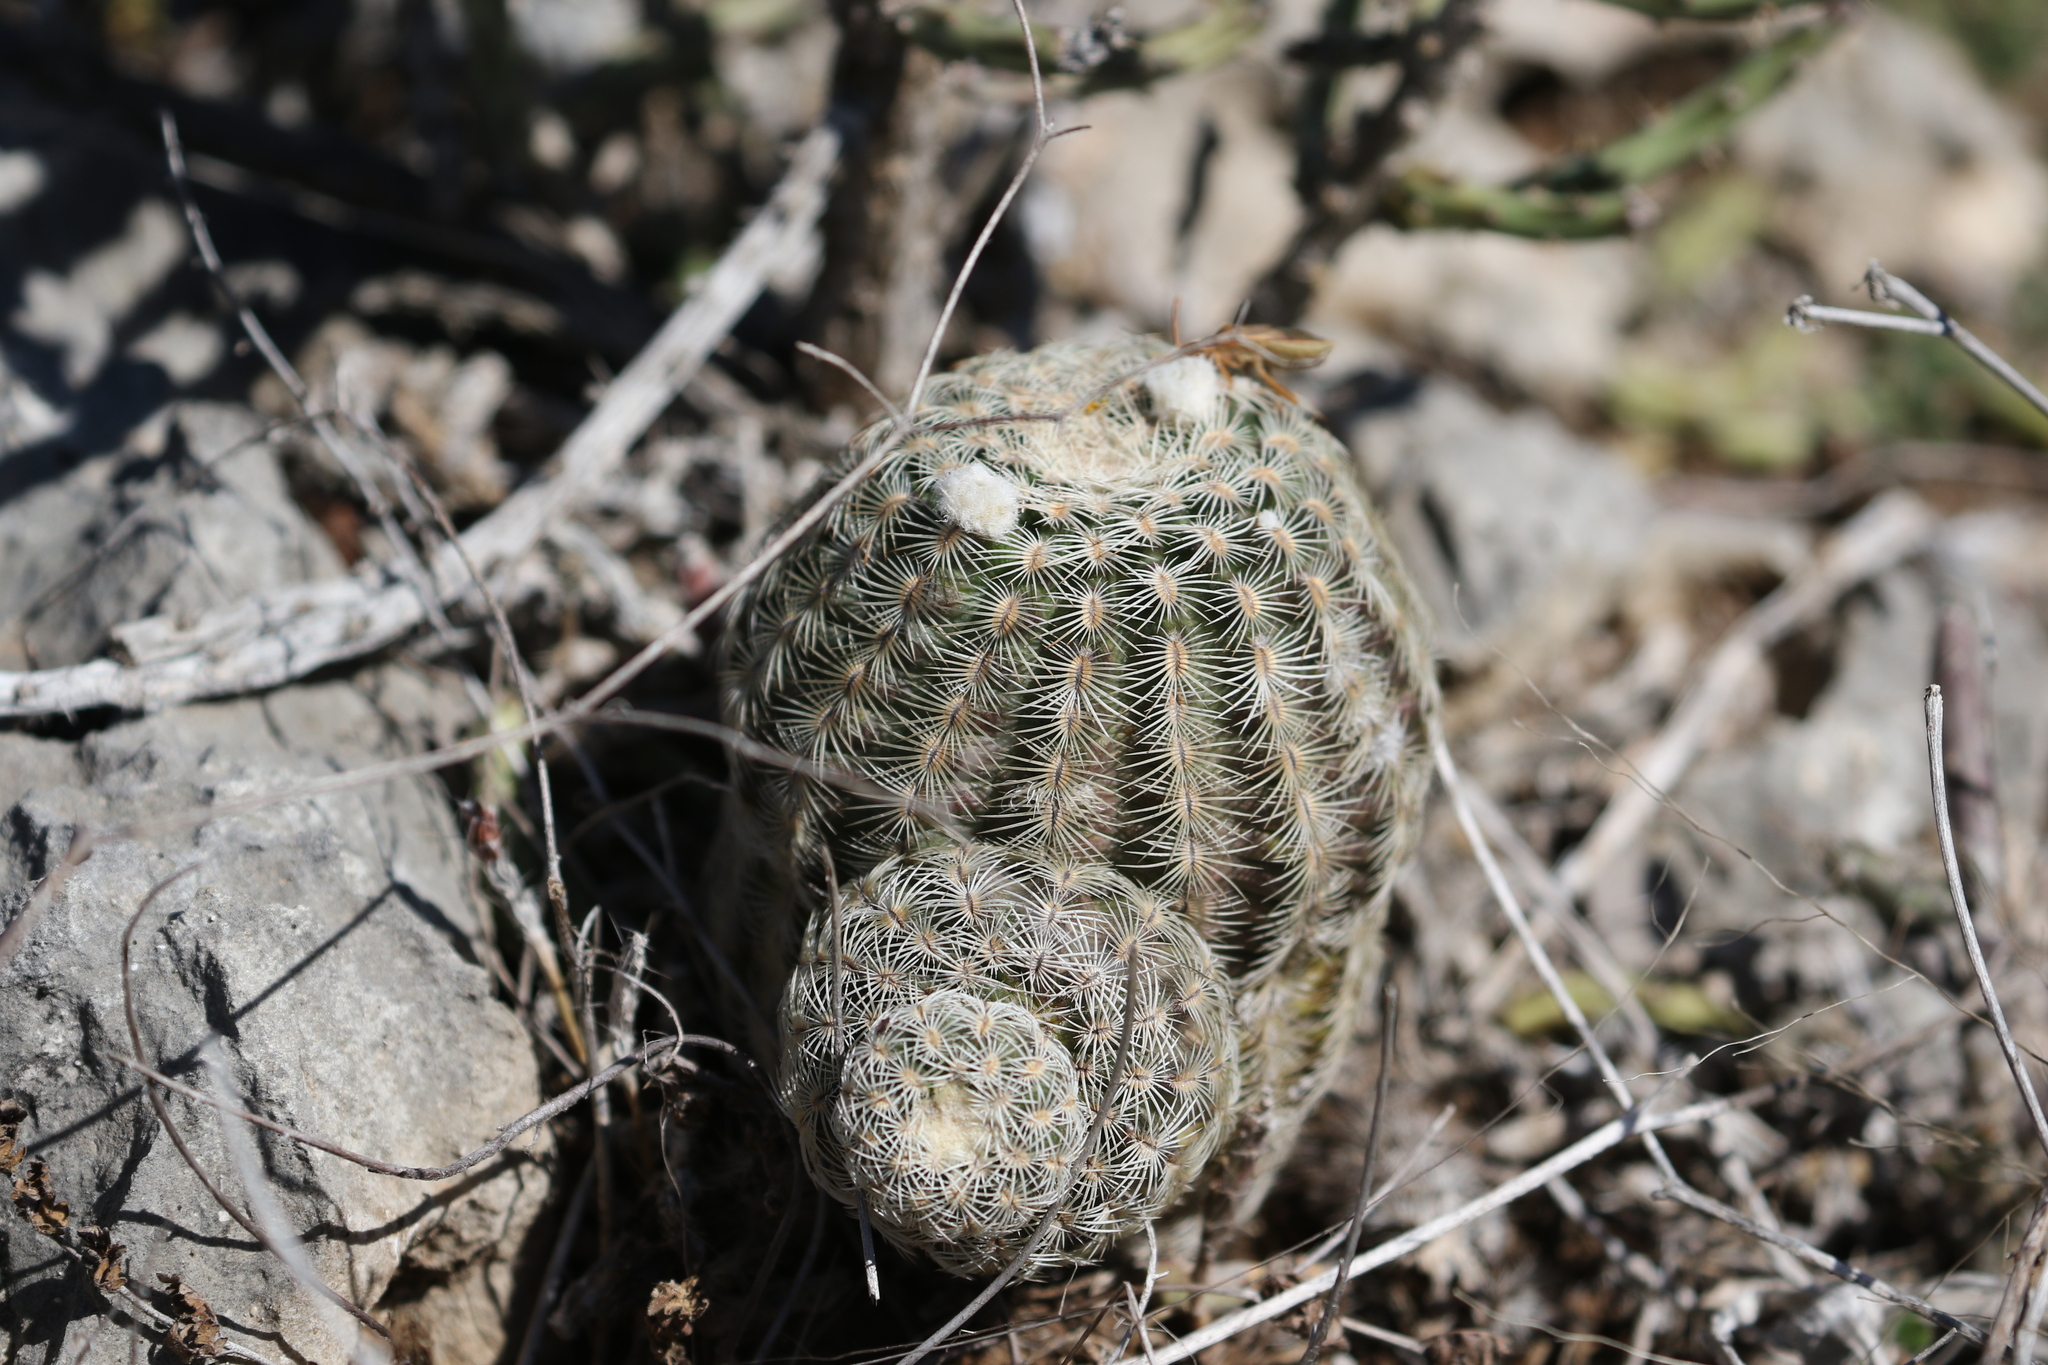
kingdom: Plantae
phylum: Tracheophyta
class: Magnoliopsida
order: Caryophyllales
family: Cactaceae
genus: Echinocereus
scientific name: Echinocereus reichenbachii
